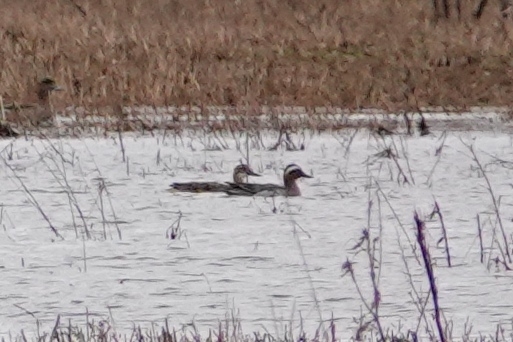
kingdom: Animalia
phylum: Chordata
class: Aves
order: Anseriformes
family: Anatidae
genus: Spatula
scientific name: Spatula querquedula
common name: Garganey
